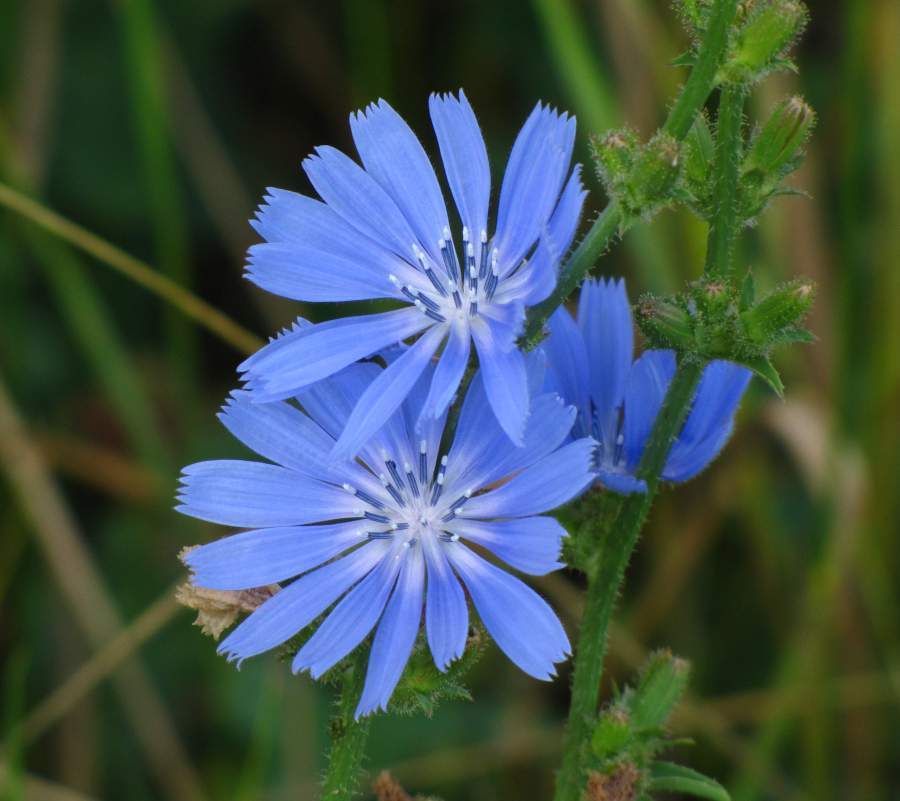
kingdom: Plantae
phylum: Tracheophyta
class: Magnoliopsida
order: Asterales
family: Asteraceae
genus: Cichorium
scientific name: Cichorium intybus
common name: Chicory
